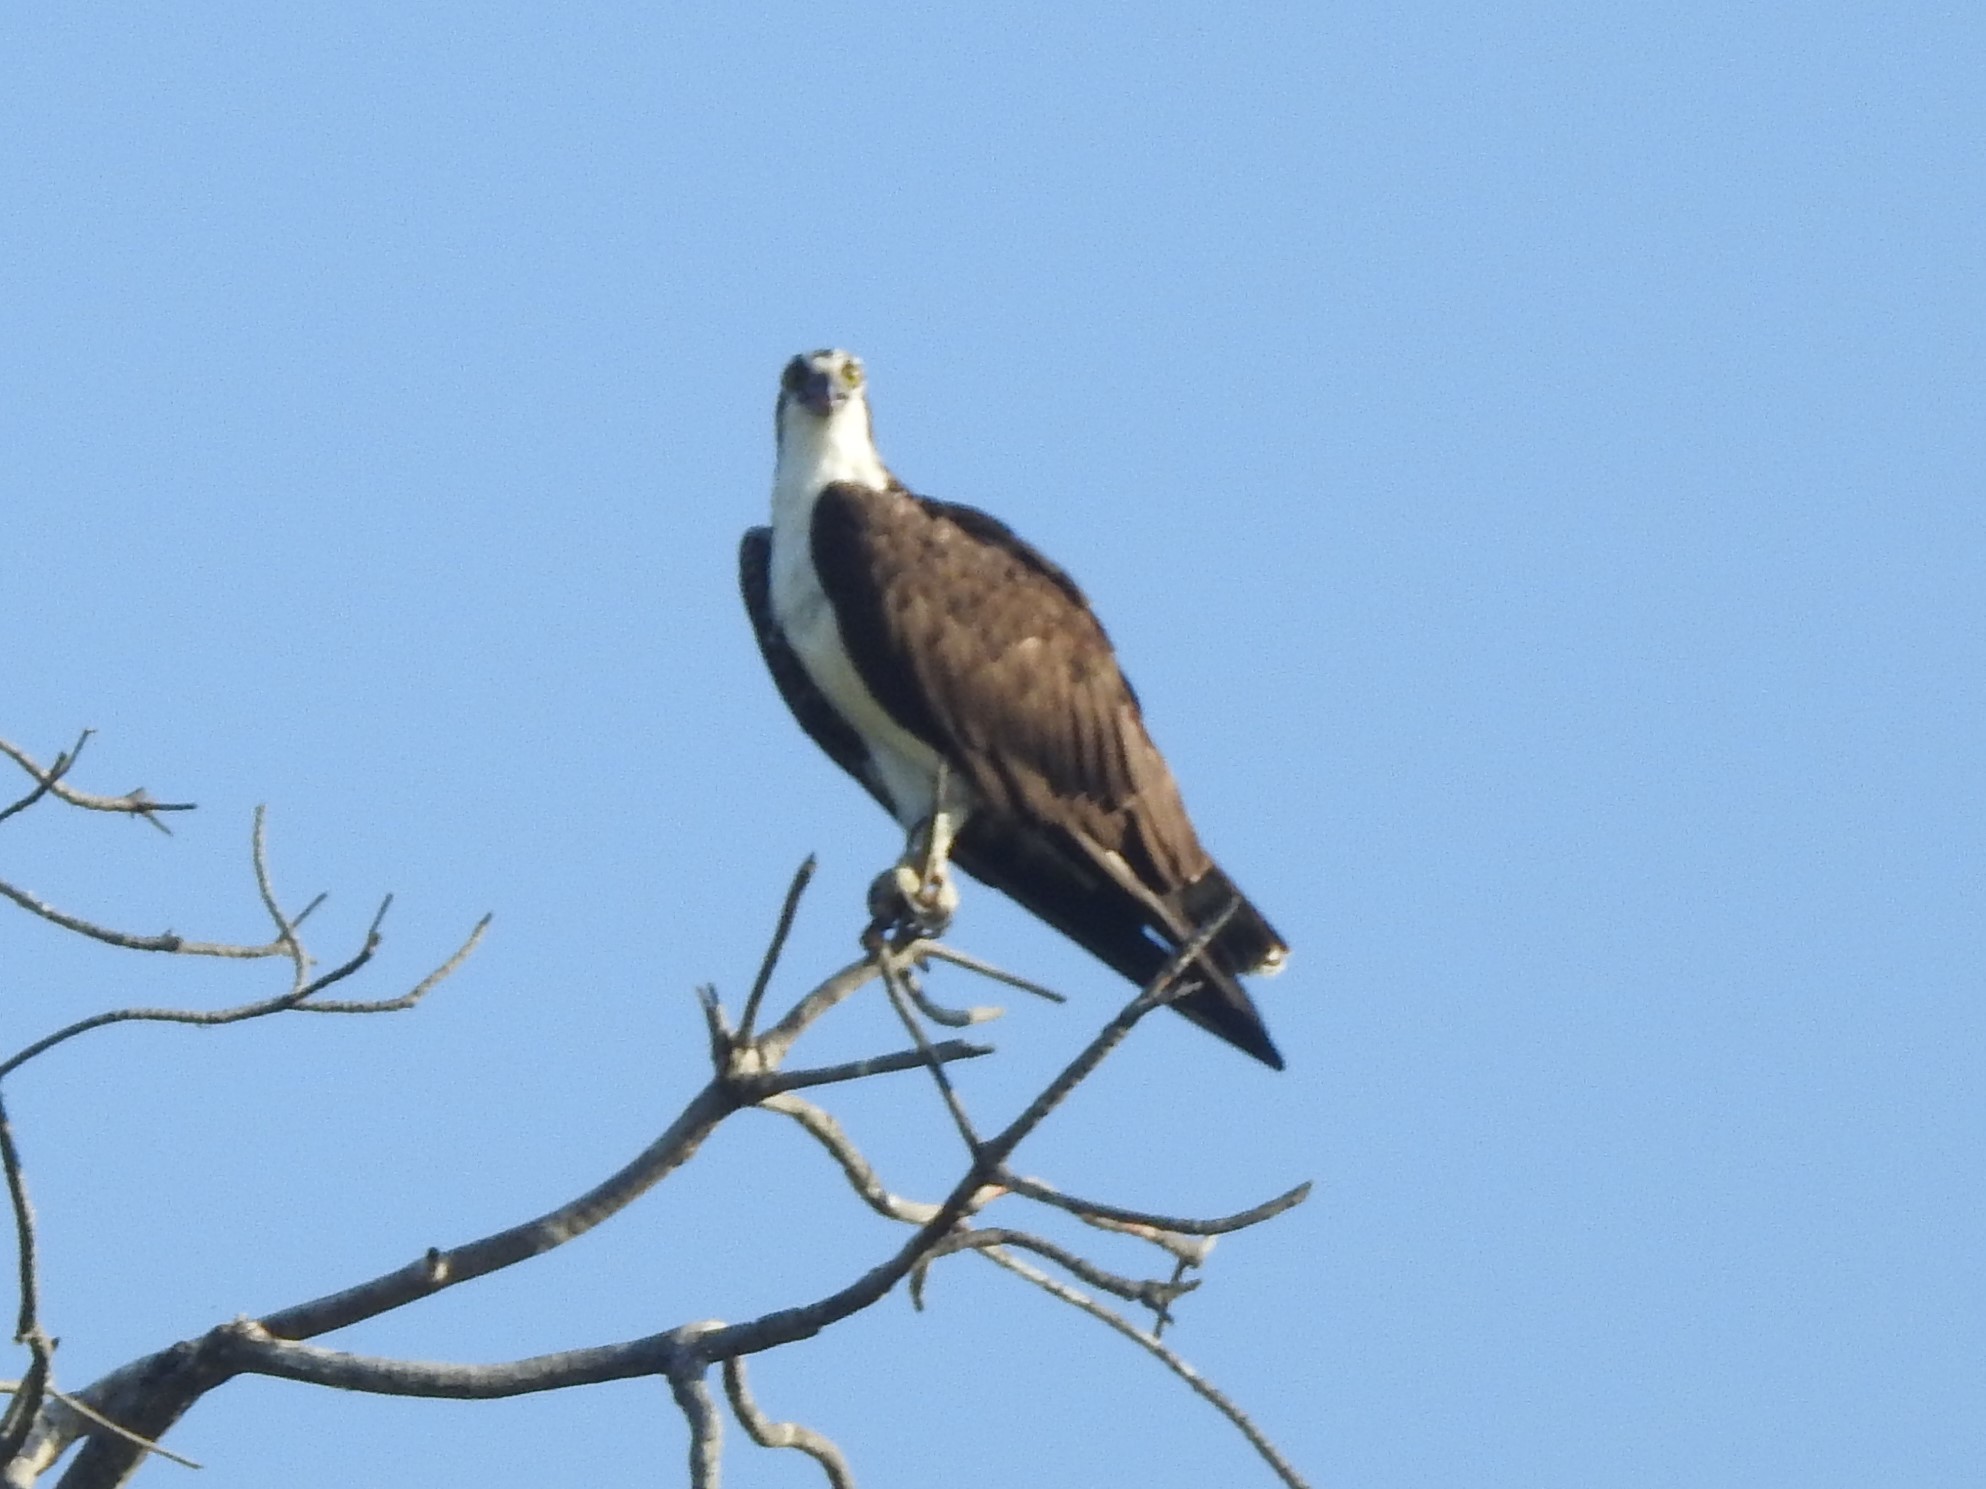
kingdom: Animalia
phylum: Chordata
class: Aves
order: Accipitriformes
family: Pandionidae
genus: Pandion
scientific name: Pandion haliaetus
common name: Osprey
